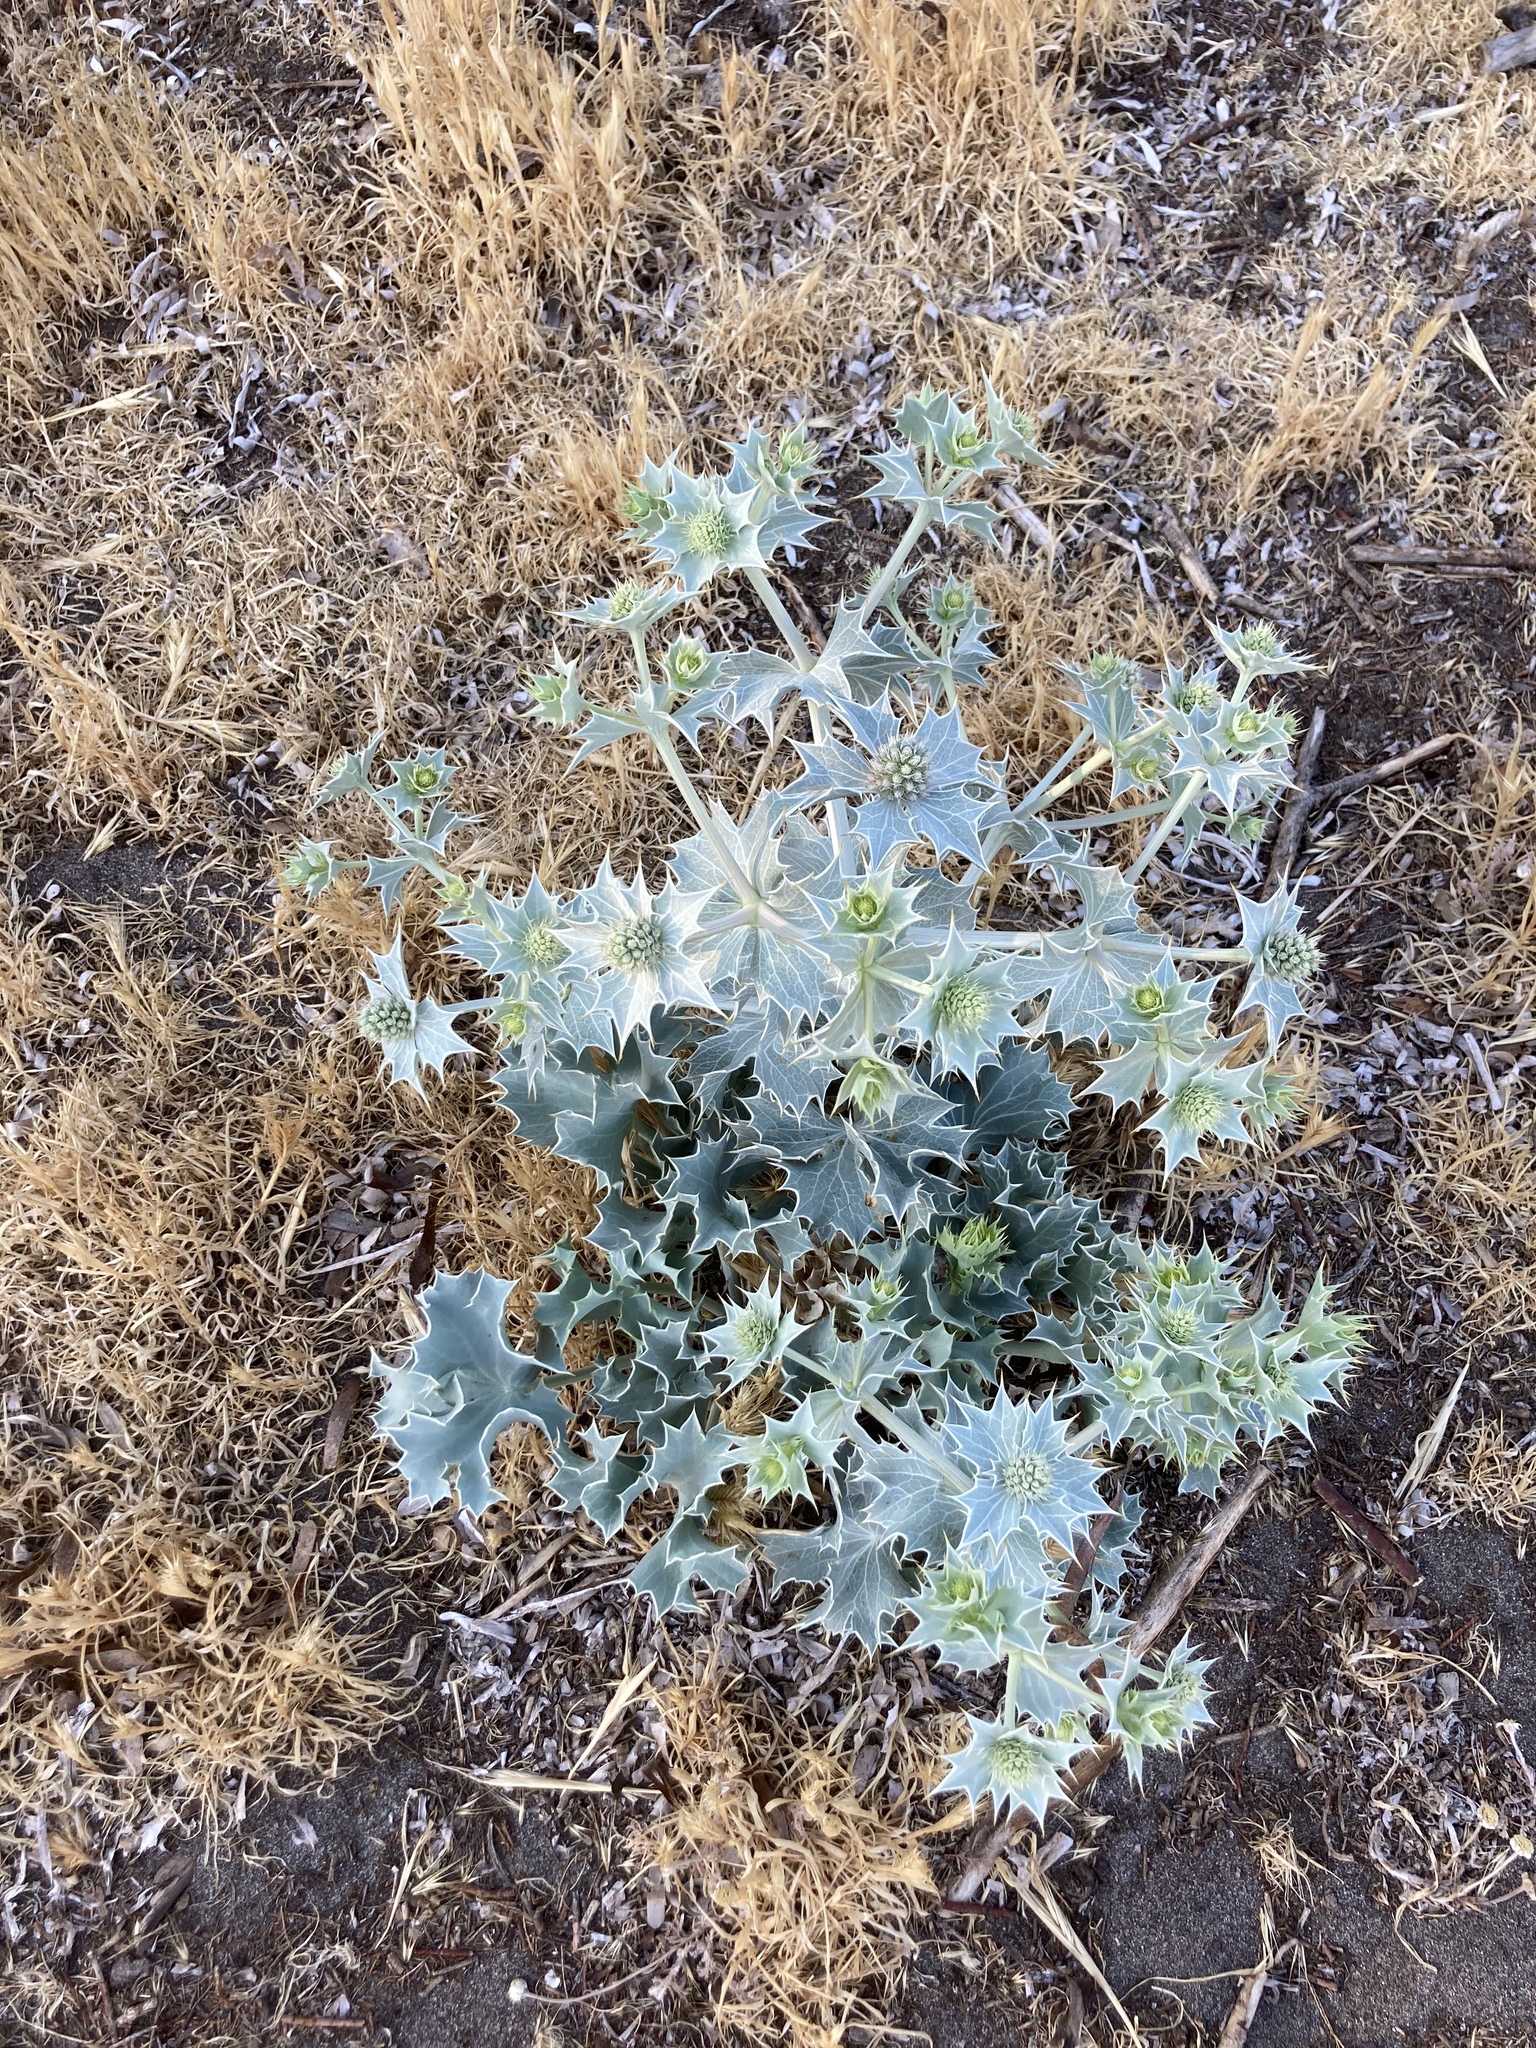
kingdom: Plantae
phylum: Tracheophyta
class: Magnoliopsida
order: Apiales
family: Apiaceae
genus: Eryngium
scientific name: Eryngium maritimum
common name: Sea-holly
